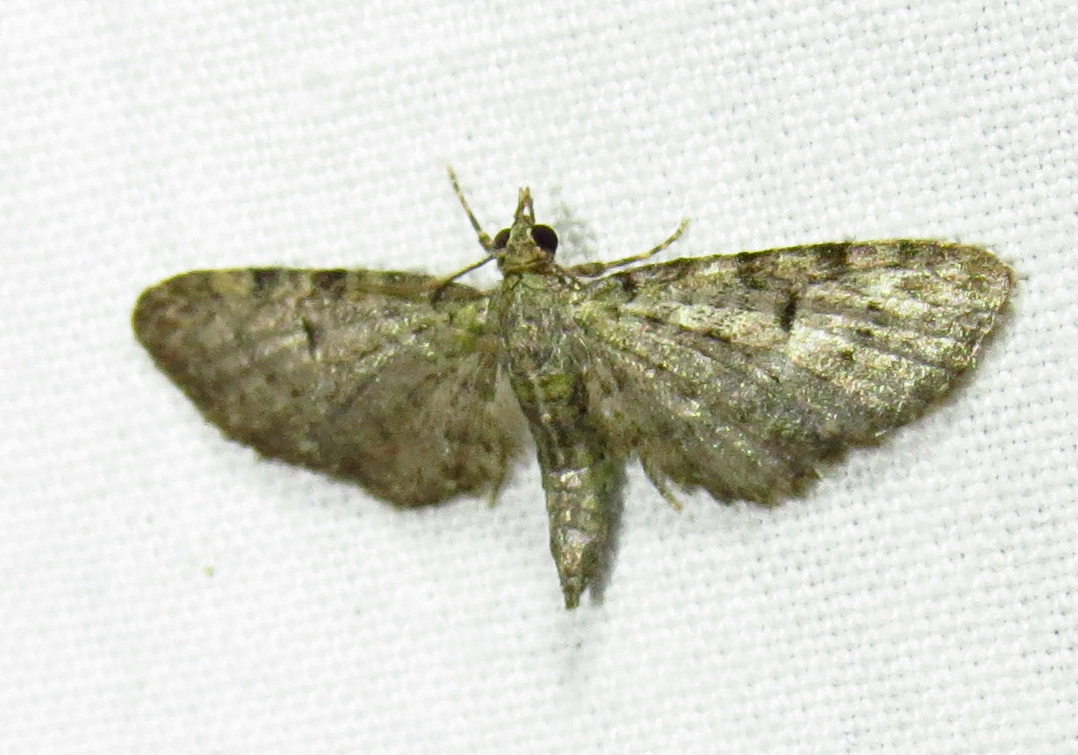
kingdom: Animalia
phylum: Arthropoda
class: Insecta
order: Lepidoptera
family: Geometridae
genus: Eupithecia
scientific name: Eupithecia miserulata
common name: Common eupithecia
